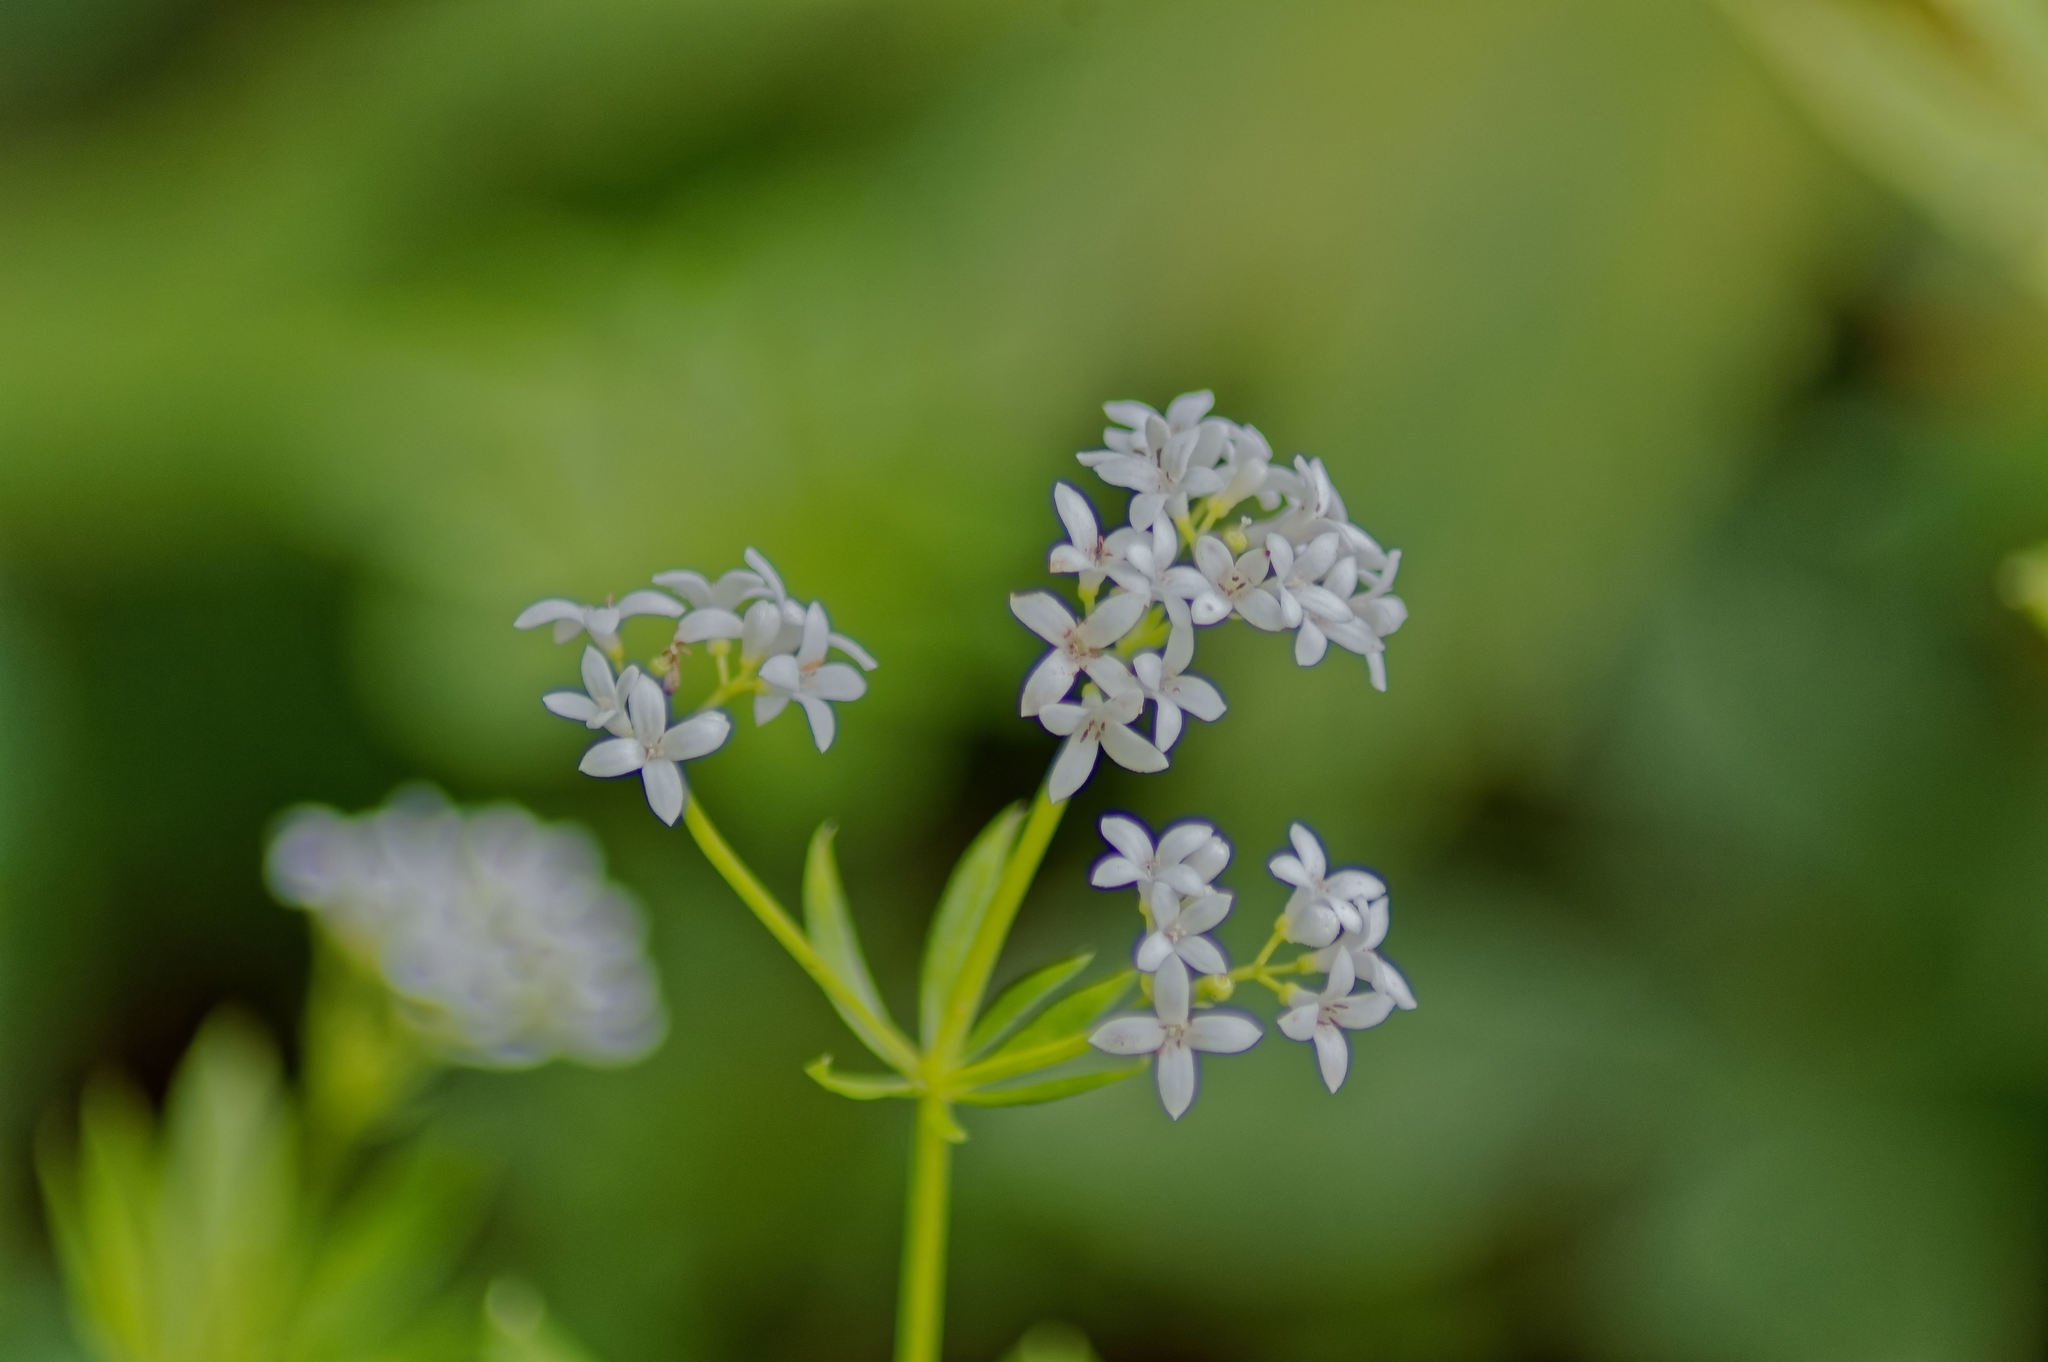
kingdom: Plantae
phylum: Tracheophyta
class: Magnoliopsida
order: Gentianales
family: Rubiaceae
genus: Galium
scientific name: Galium odoratum
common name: Sweet woodruff
